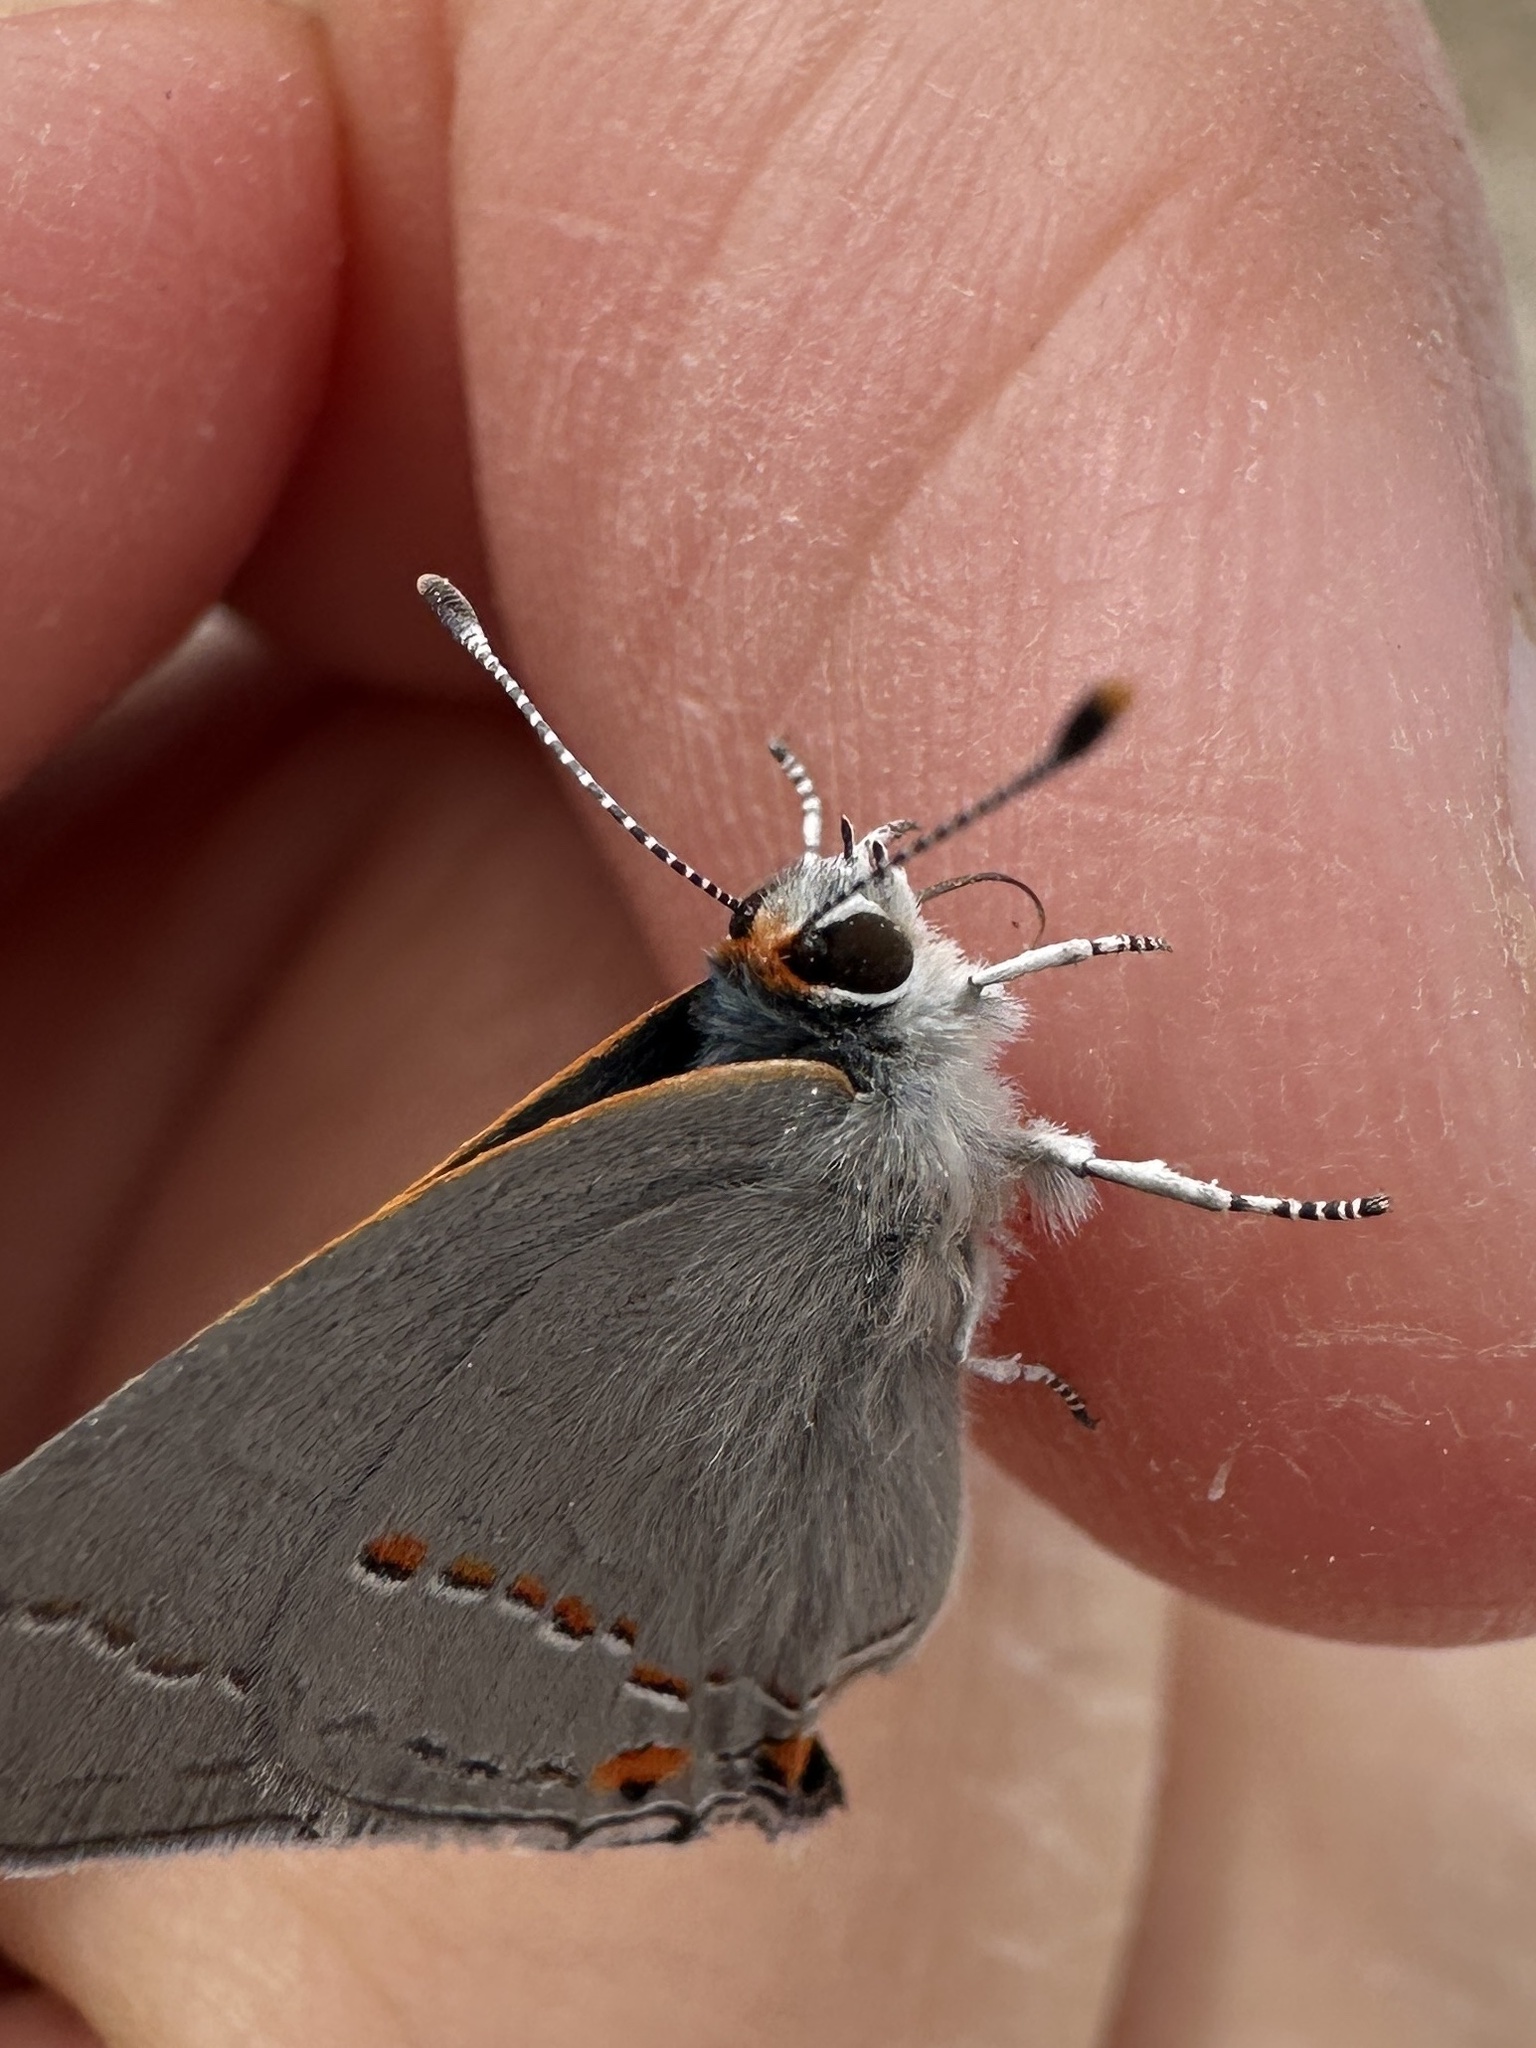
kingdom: Animalia
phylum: Arthropoda
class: Insecta
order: Lepidoptera
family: Lycaenidae
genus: Strymon
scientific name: Strymon melinus
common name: Gray hairstreak
